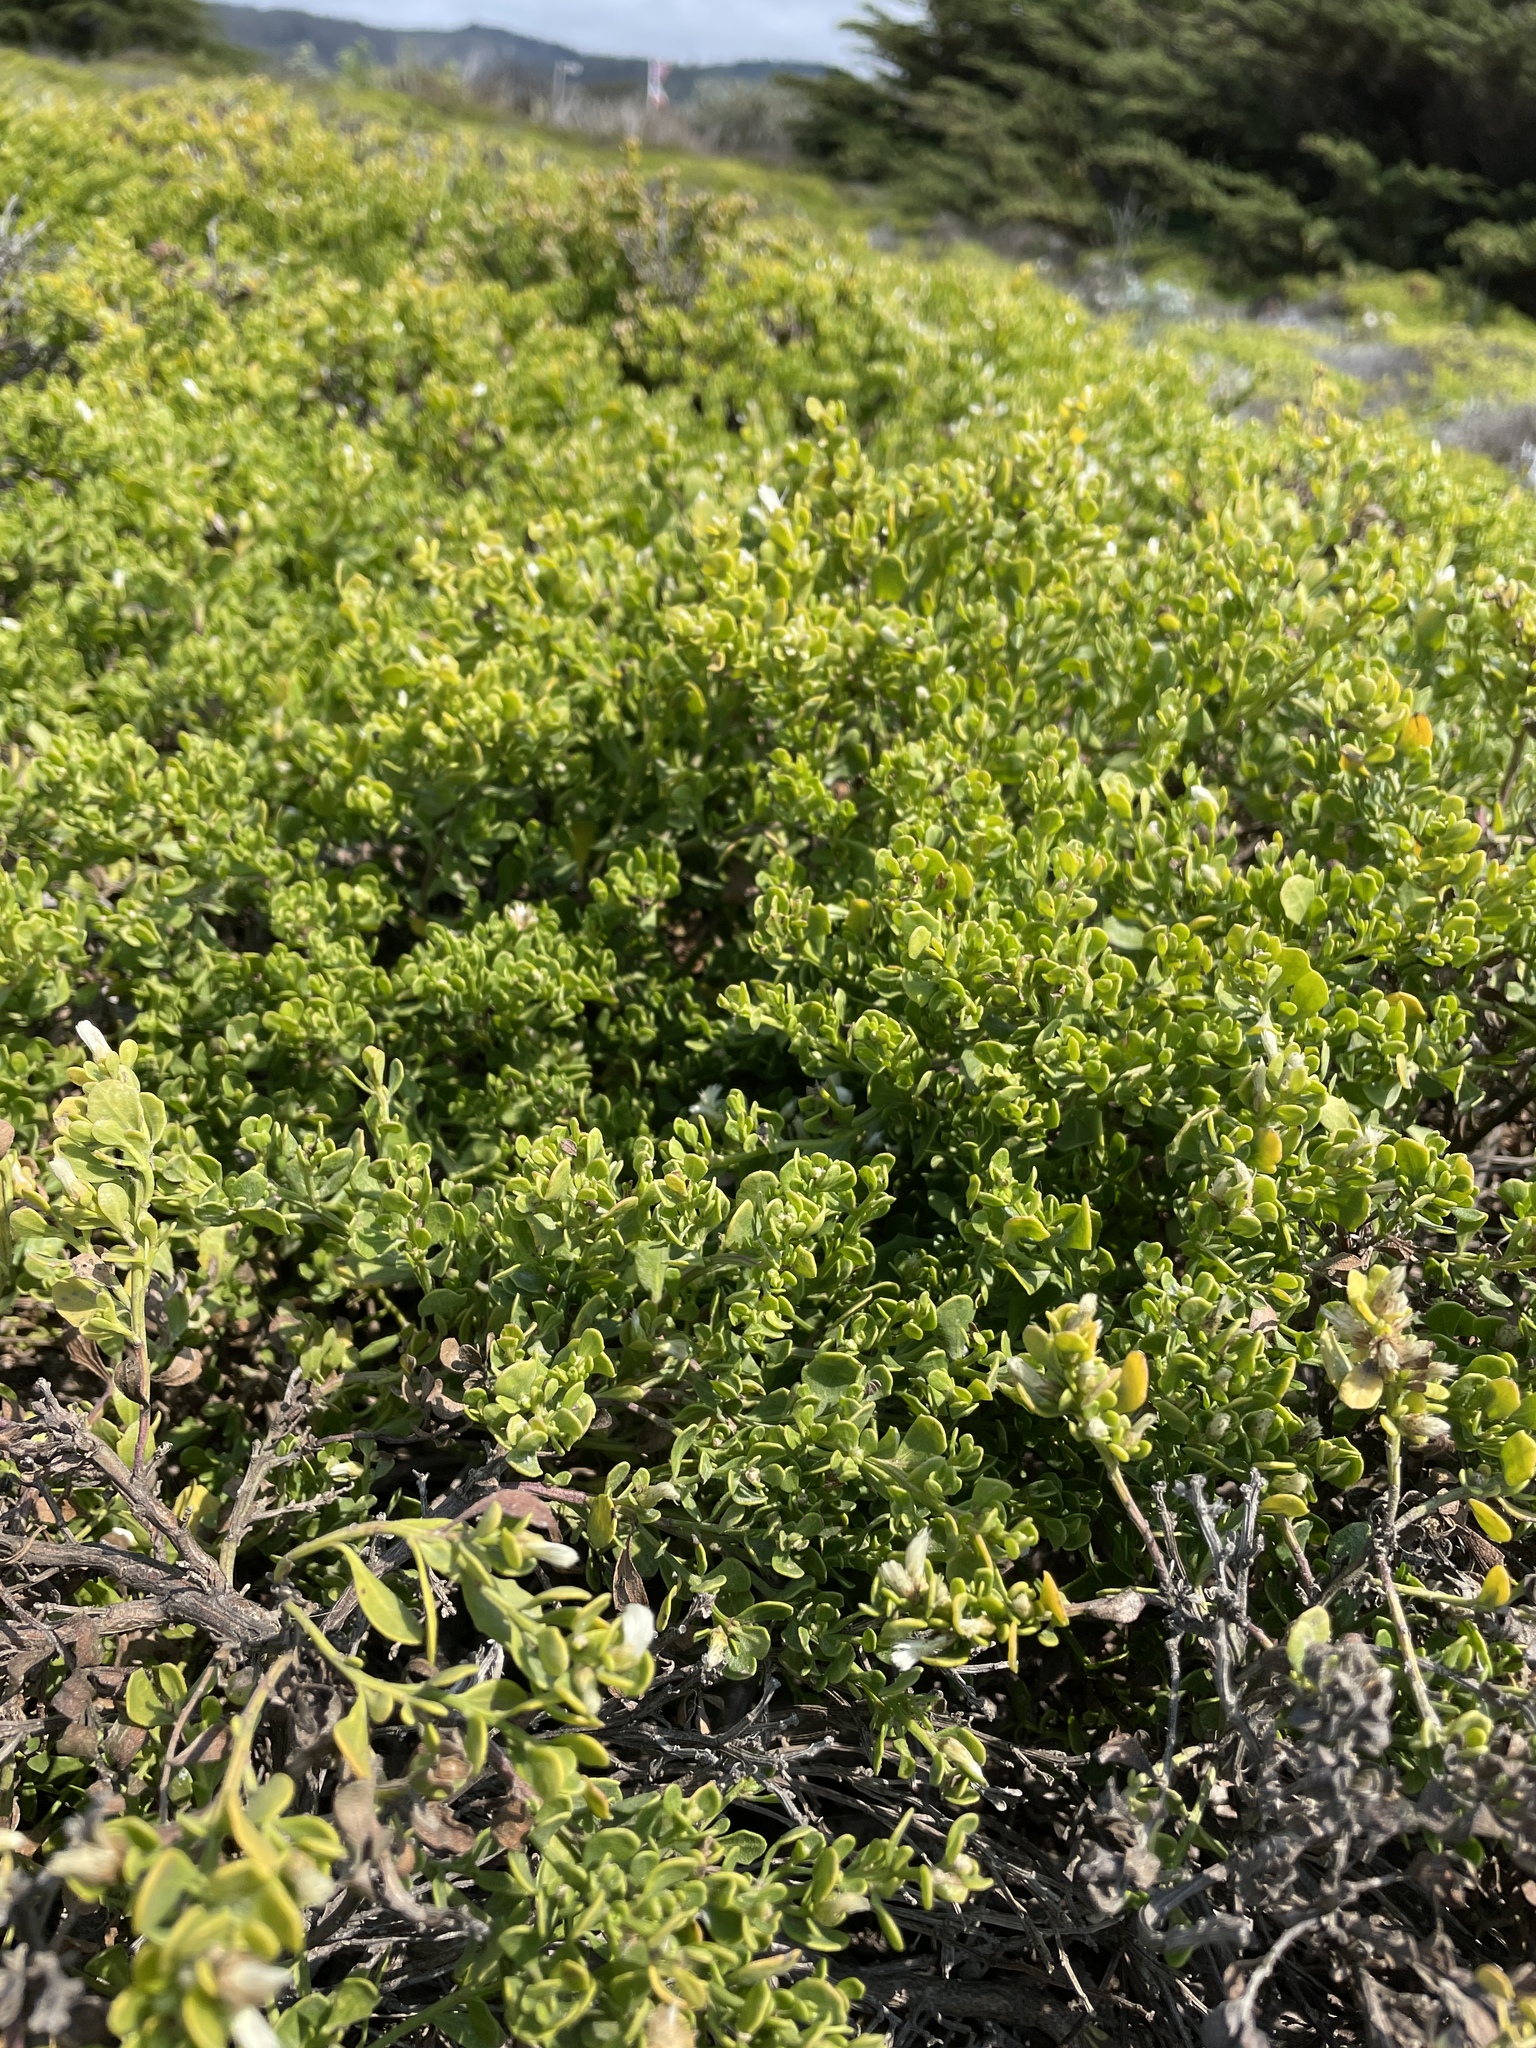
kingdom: Plantae
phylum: Tracheophyta
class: Magnoliopsida
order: Asterales
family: Asteraceae
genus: Baccharis
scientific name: Baccharis pilularis
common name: Coyotebrush
